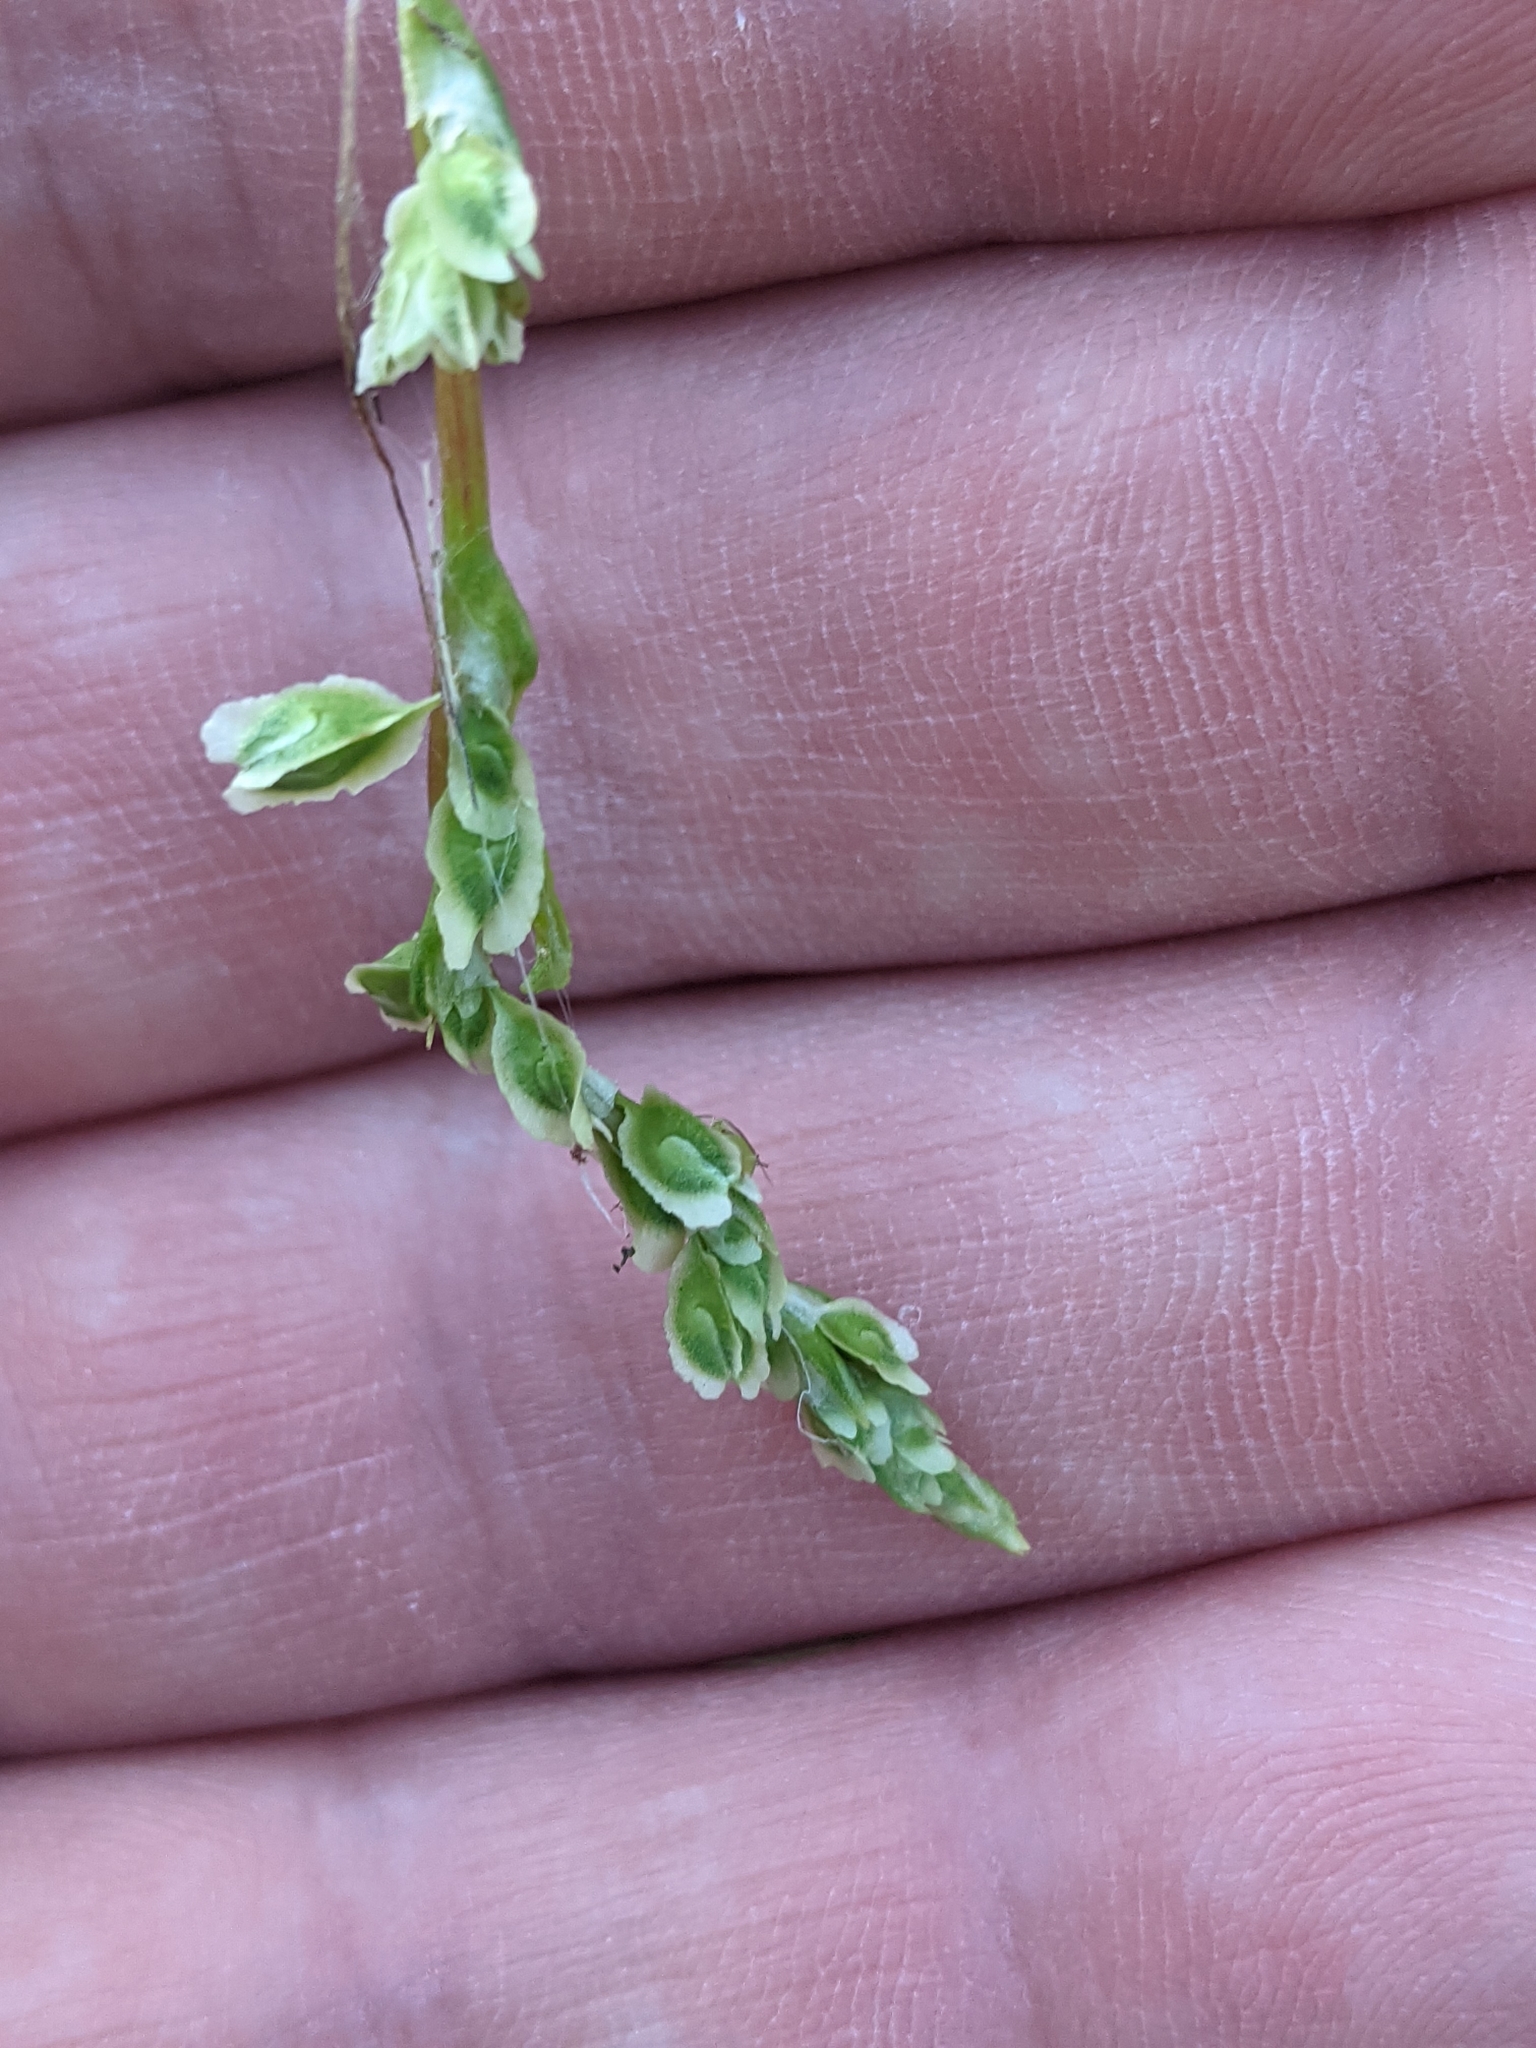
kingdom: Plantae
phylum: Tracheophyta
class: Magnoliopsida
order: Caryophyllales
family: Polygonaceae
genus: Fallopia
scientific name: Fallopia scandens
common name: Climbing false buckwheat
